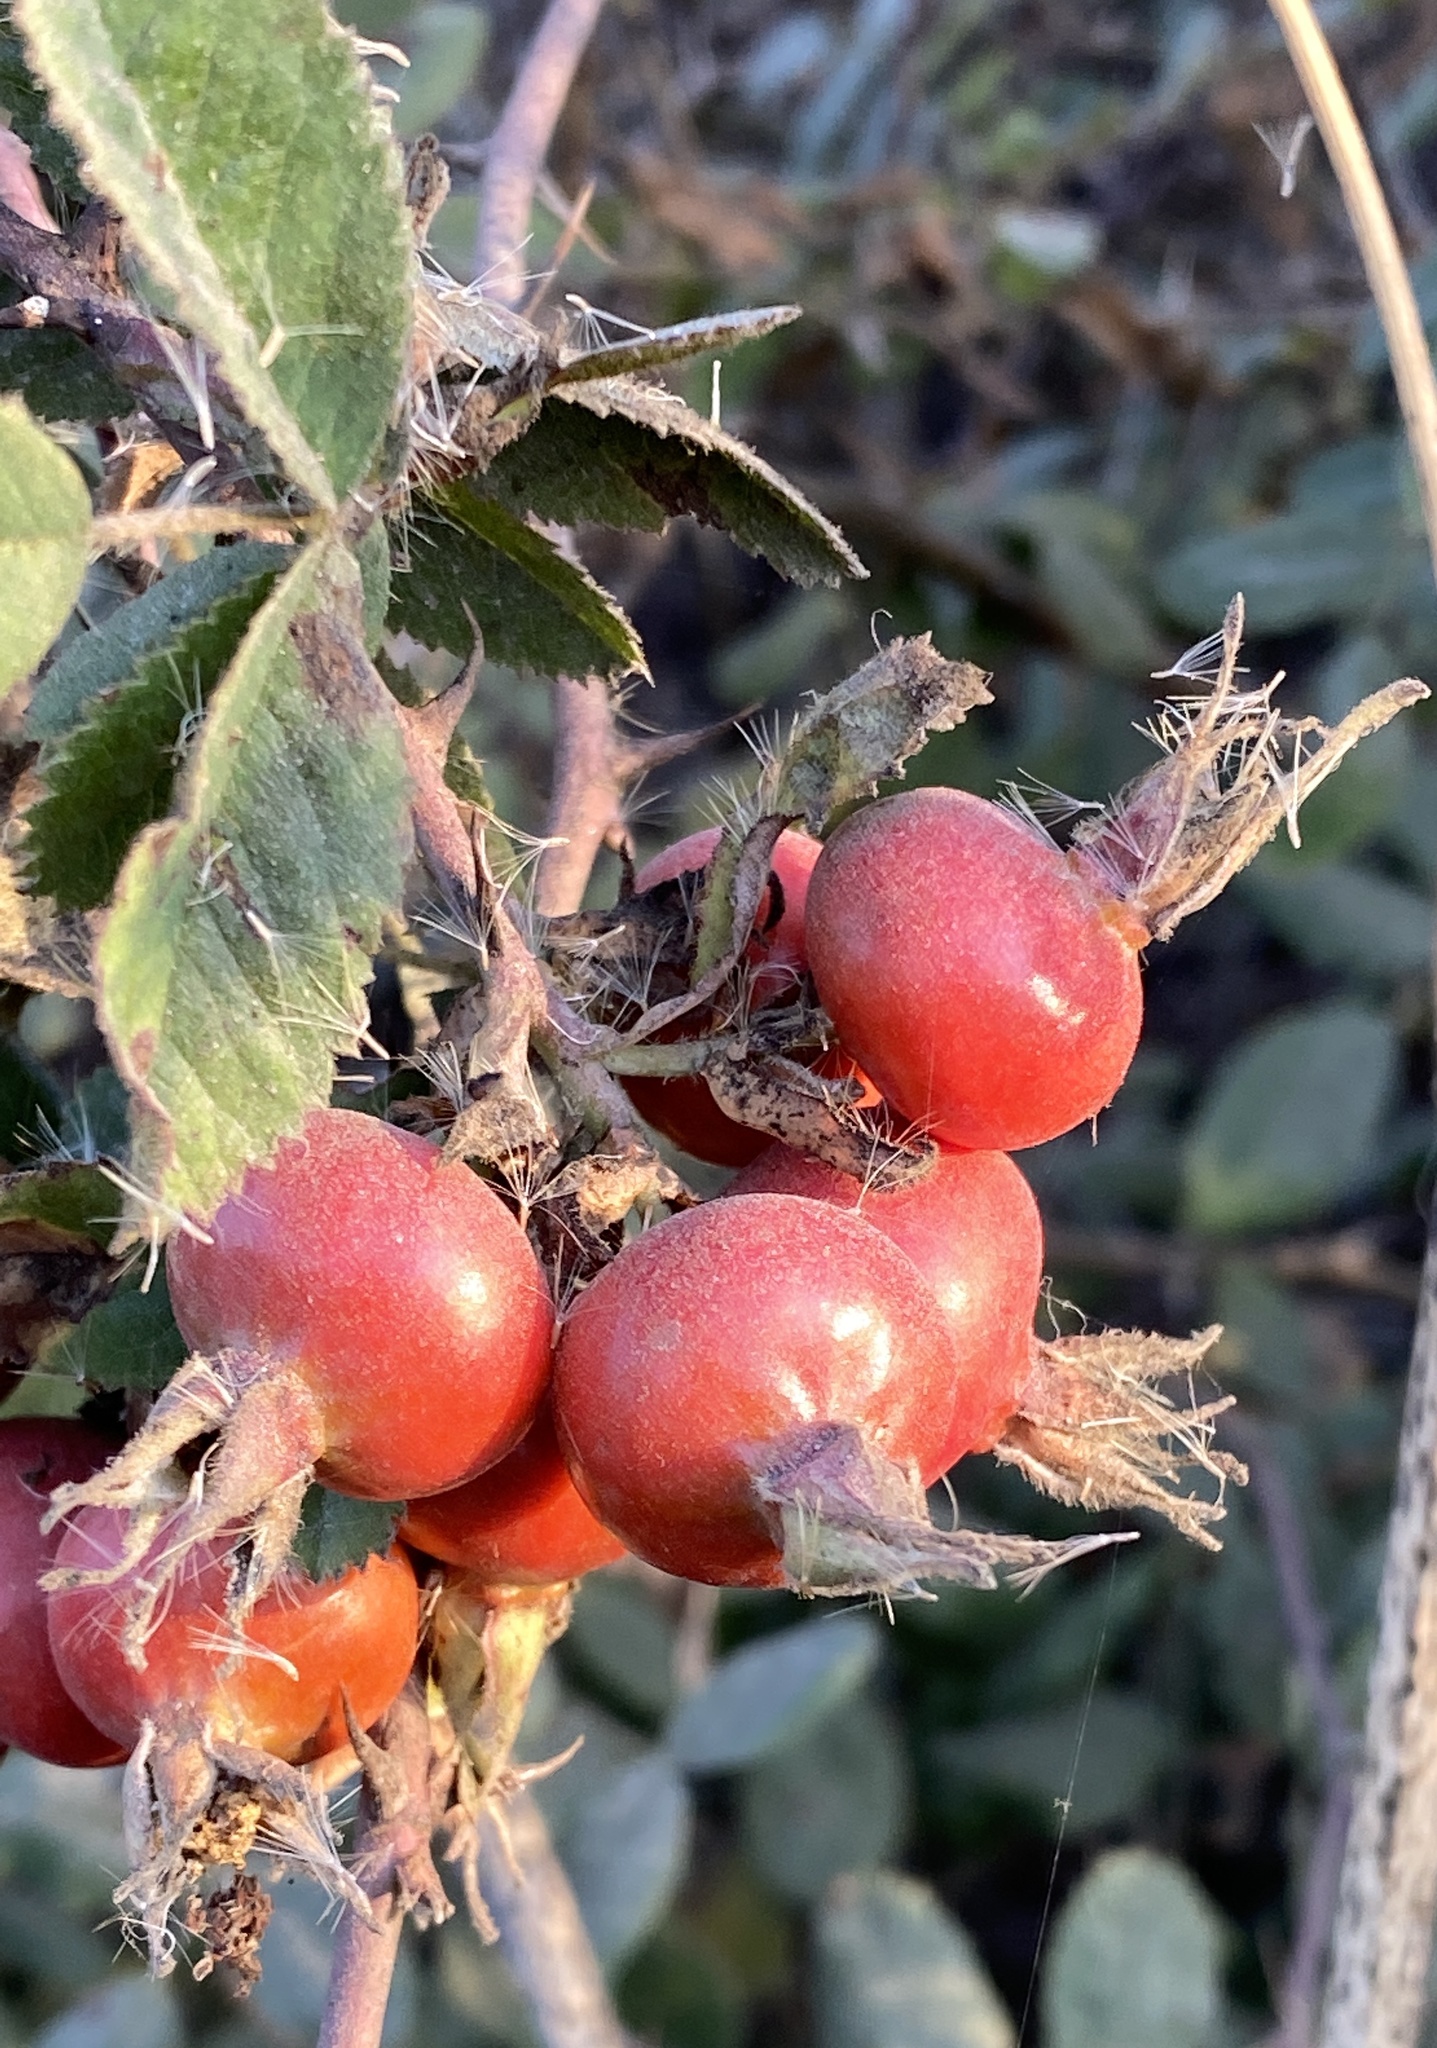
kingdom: Plantae
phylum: Tracheophyta
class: Magnoliopsida
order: Rosales
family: Rosaceae
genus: Rosa
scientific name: Rosa californica
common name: California rose
